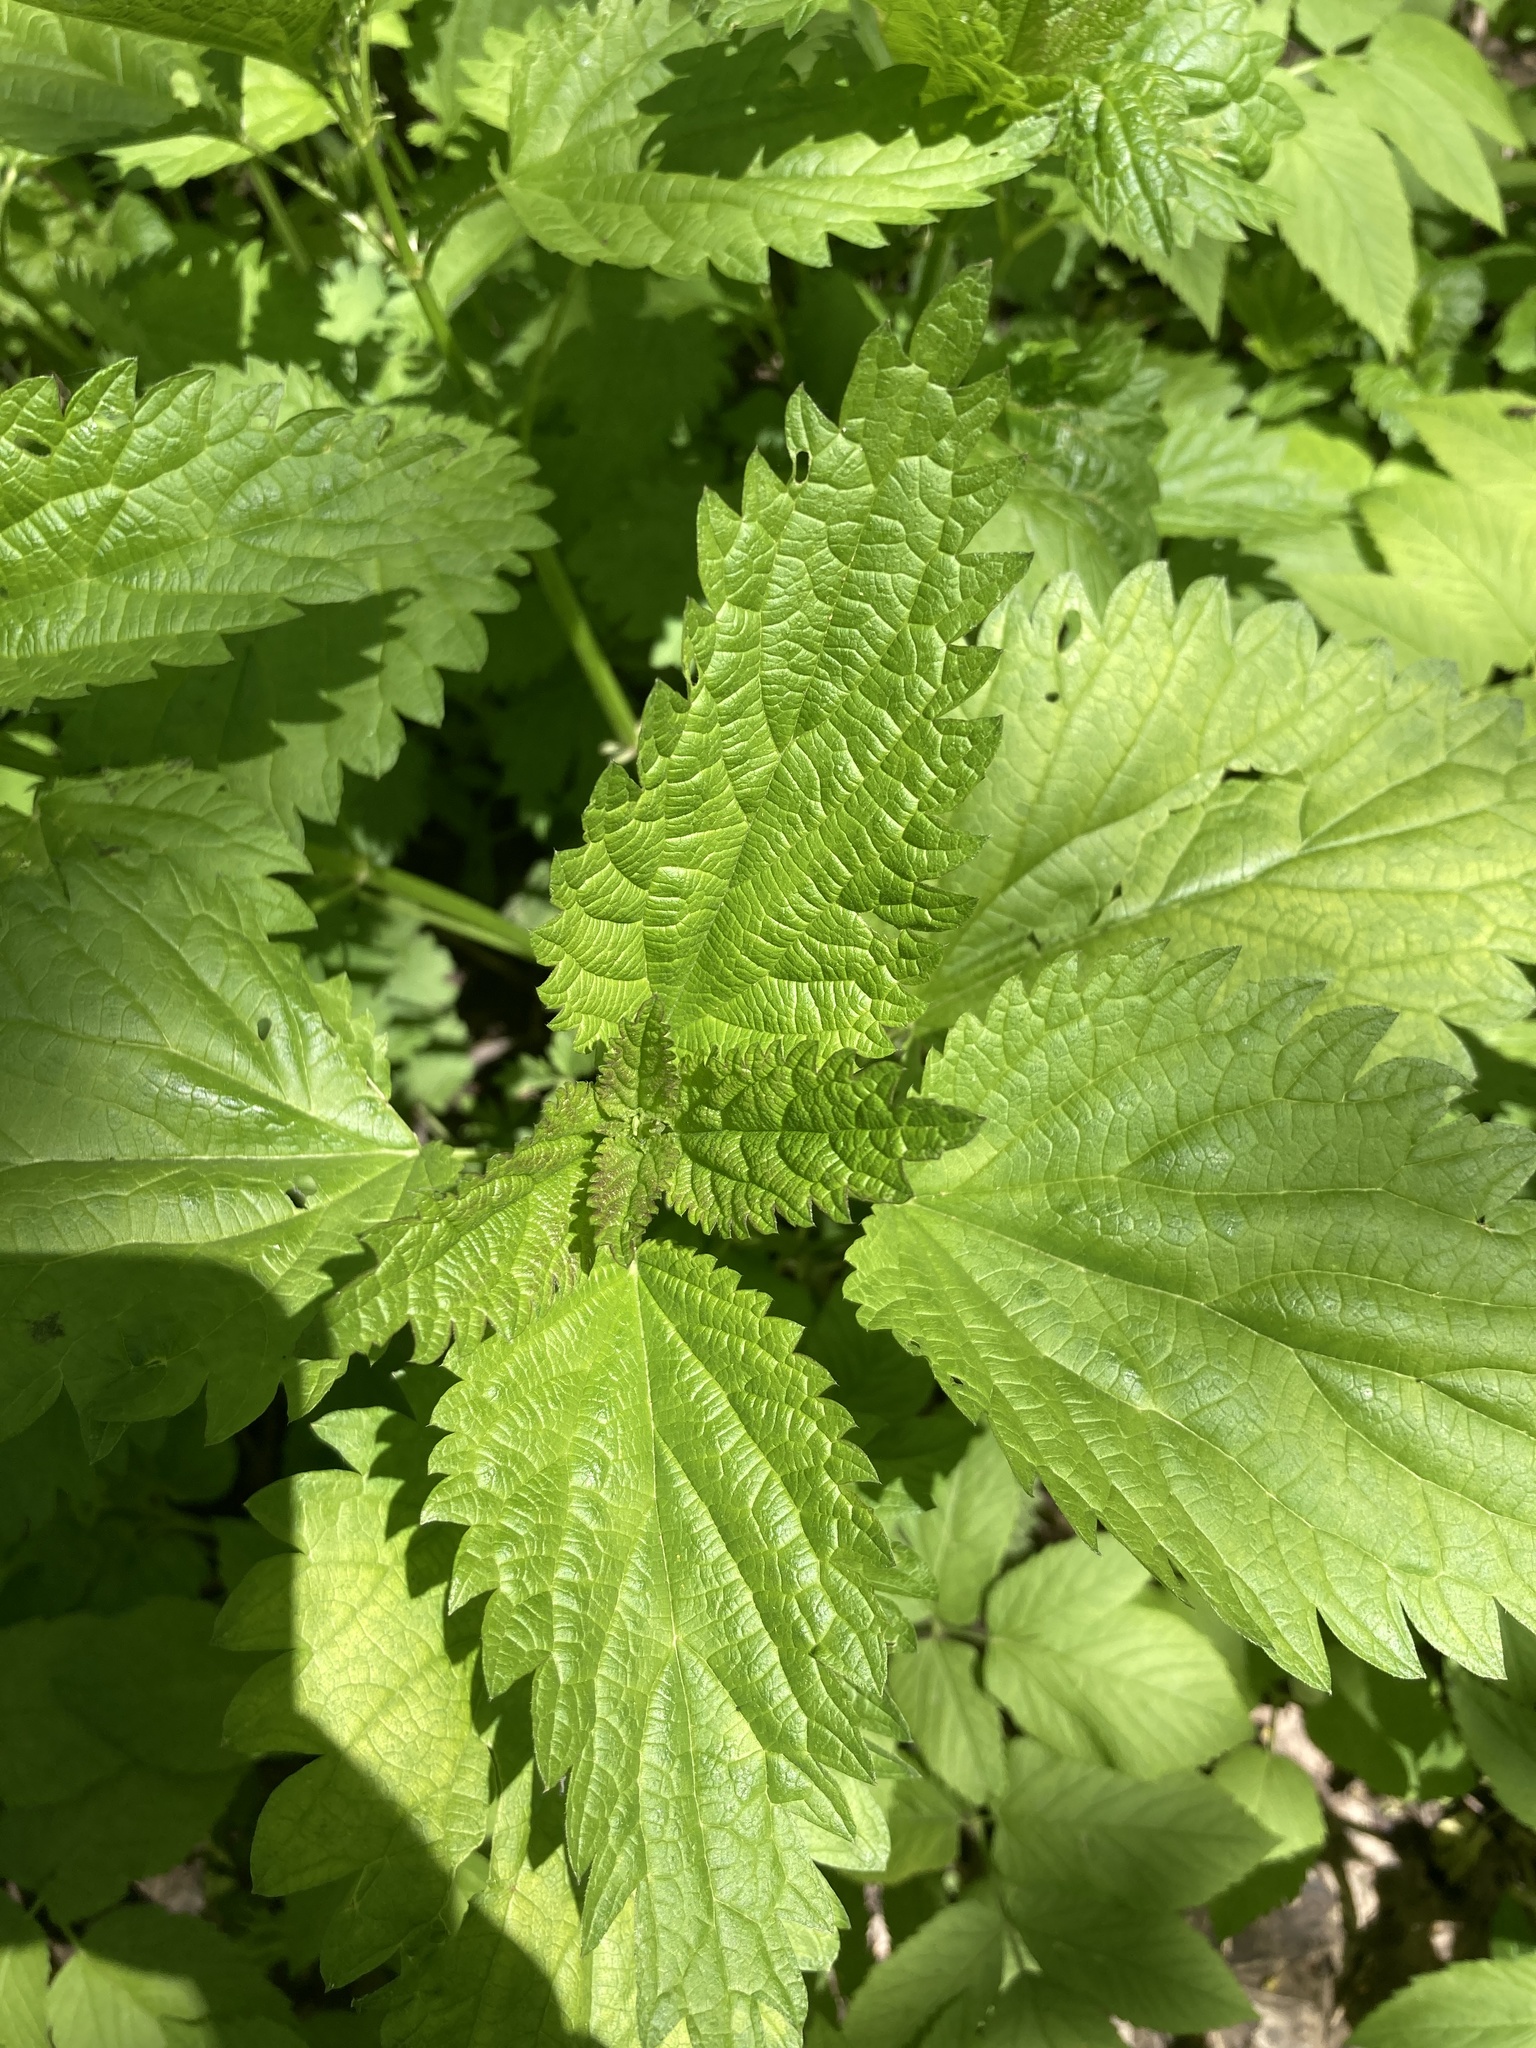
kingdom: Plantae
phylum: Tracheophyta
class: Magnoliopsida
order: Rosales
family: Urticaceae
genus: Urtica
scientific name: Urtica dioica
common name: Common nettle
